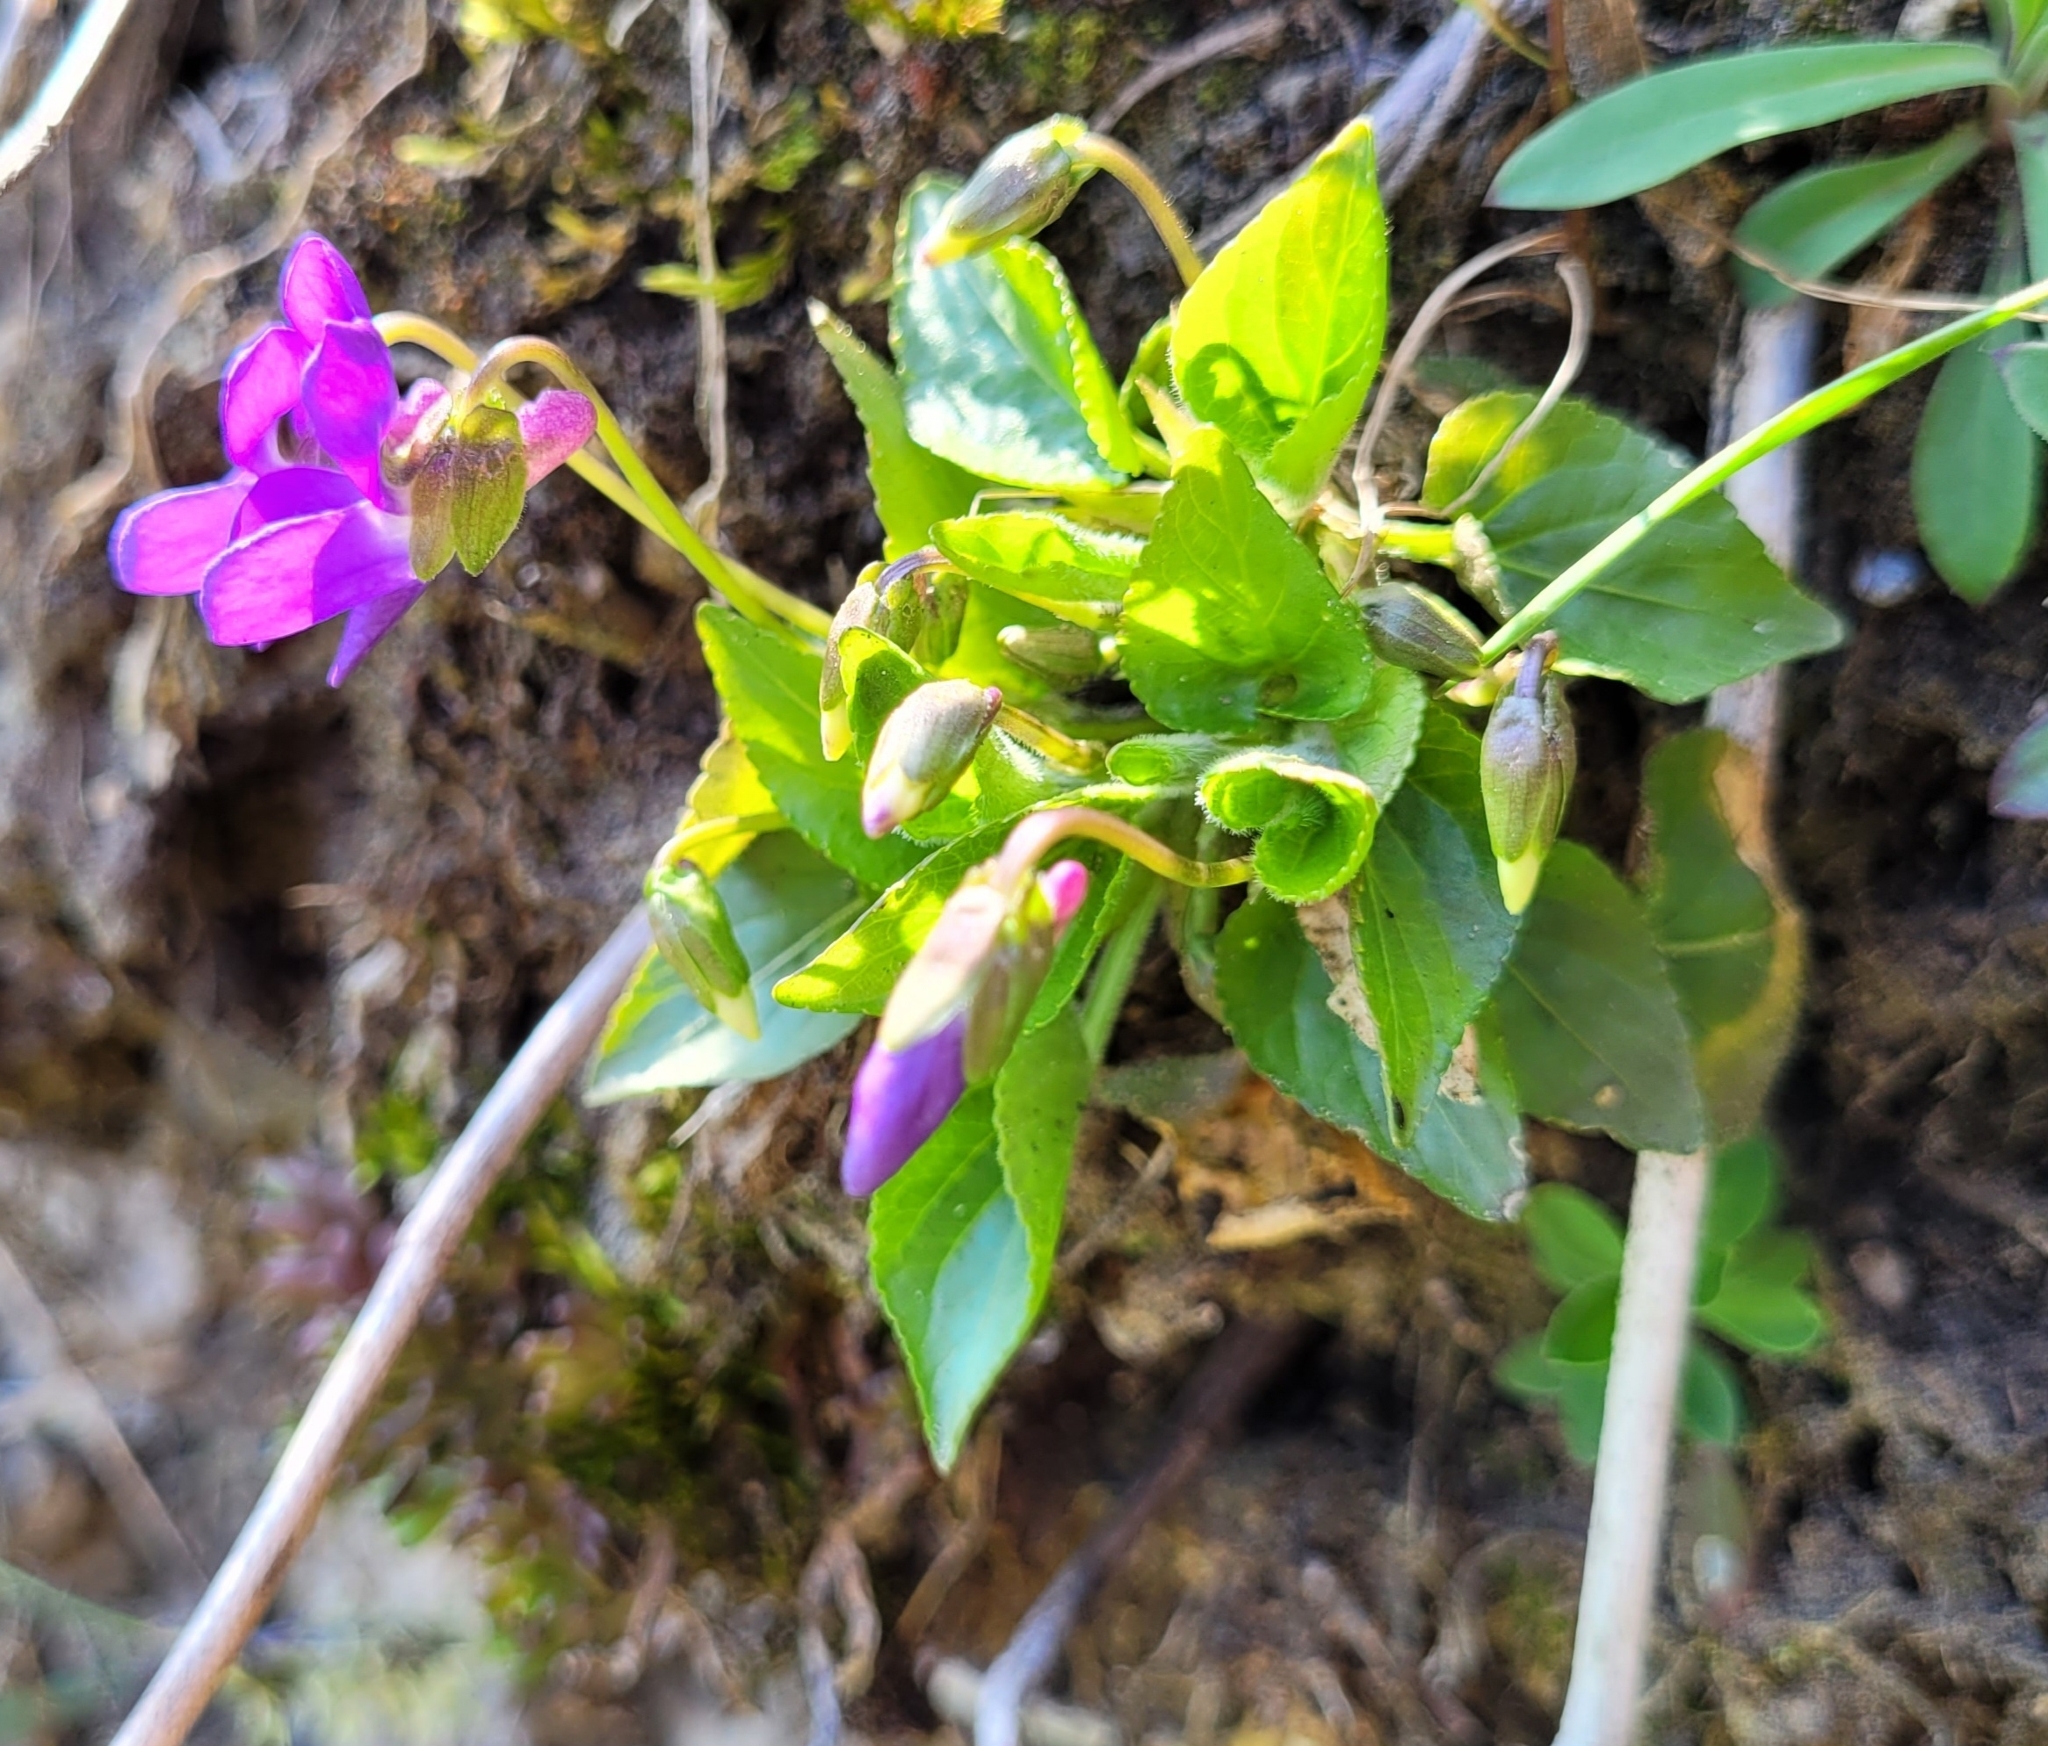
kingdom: Plantae
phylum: Tracheophyta
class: Magnoliopsida
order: Malpighiales
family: Violaceae
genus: Viola
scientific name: Viola scabra
